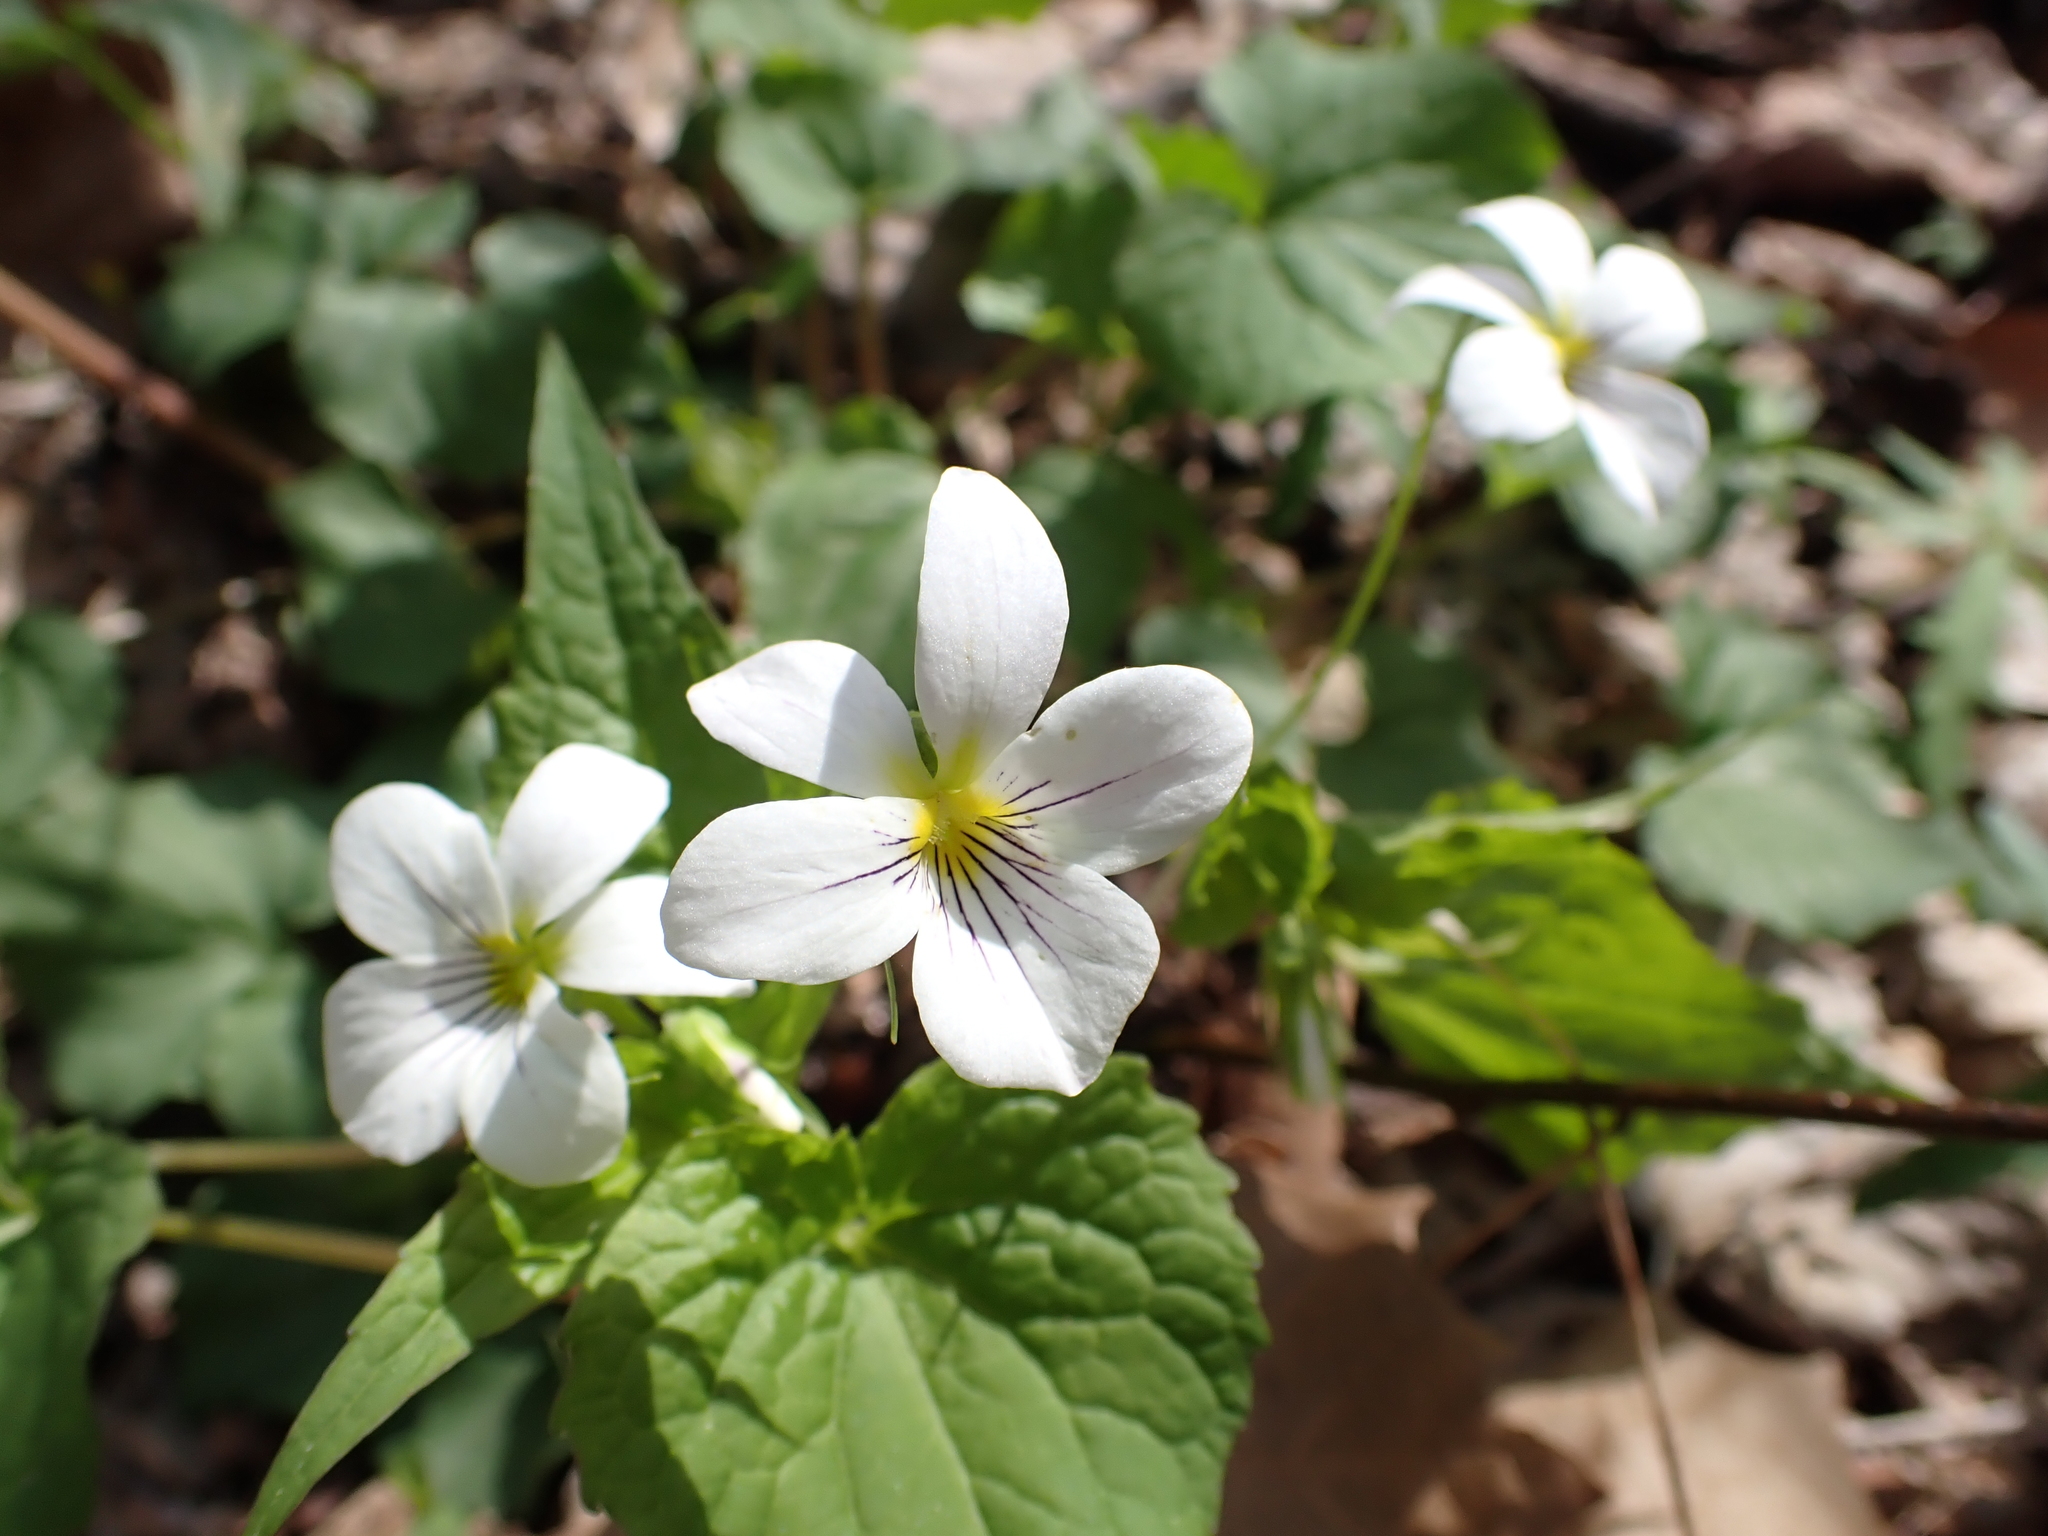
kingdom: Plantae
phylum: Tracheophyta
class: Magnoliopsida
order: Malpighiales
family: Violaceae
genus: Viola
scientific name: Viola canadensis
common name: Canada violet
